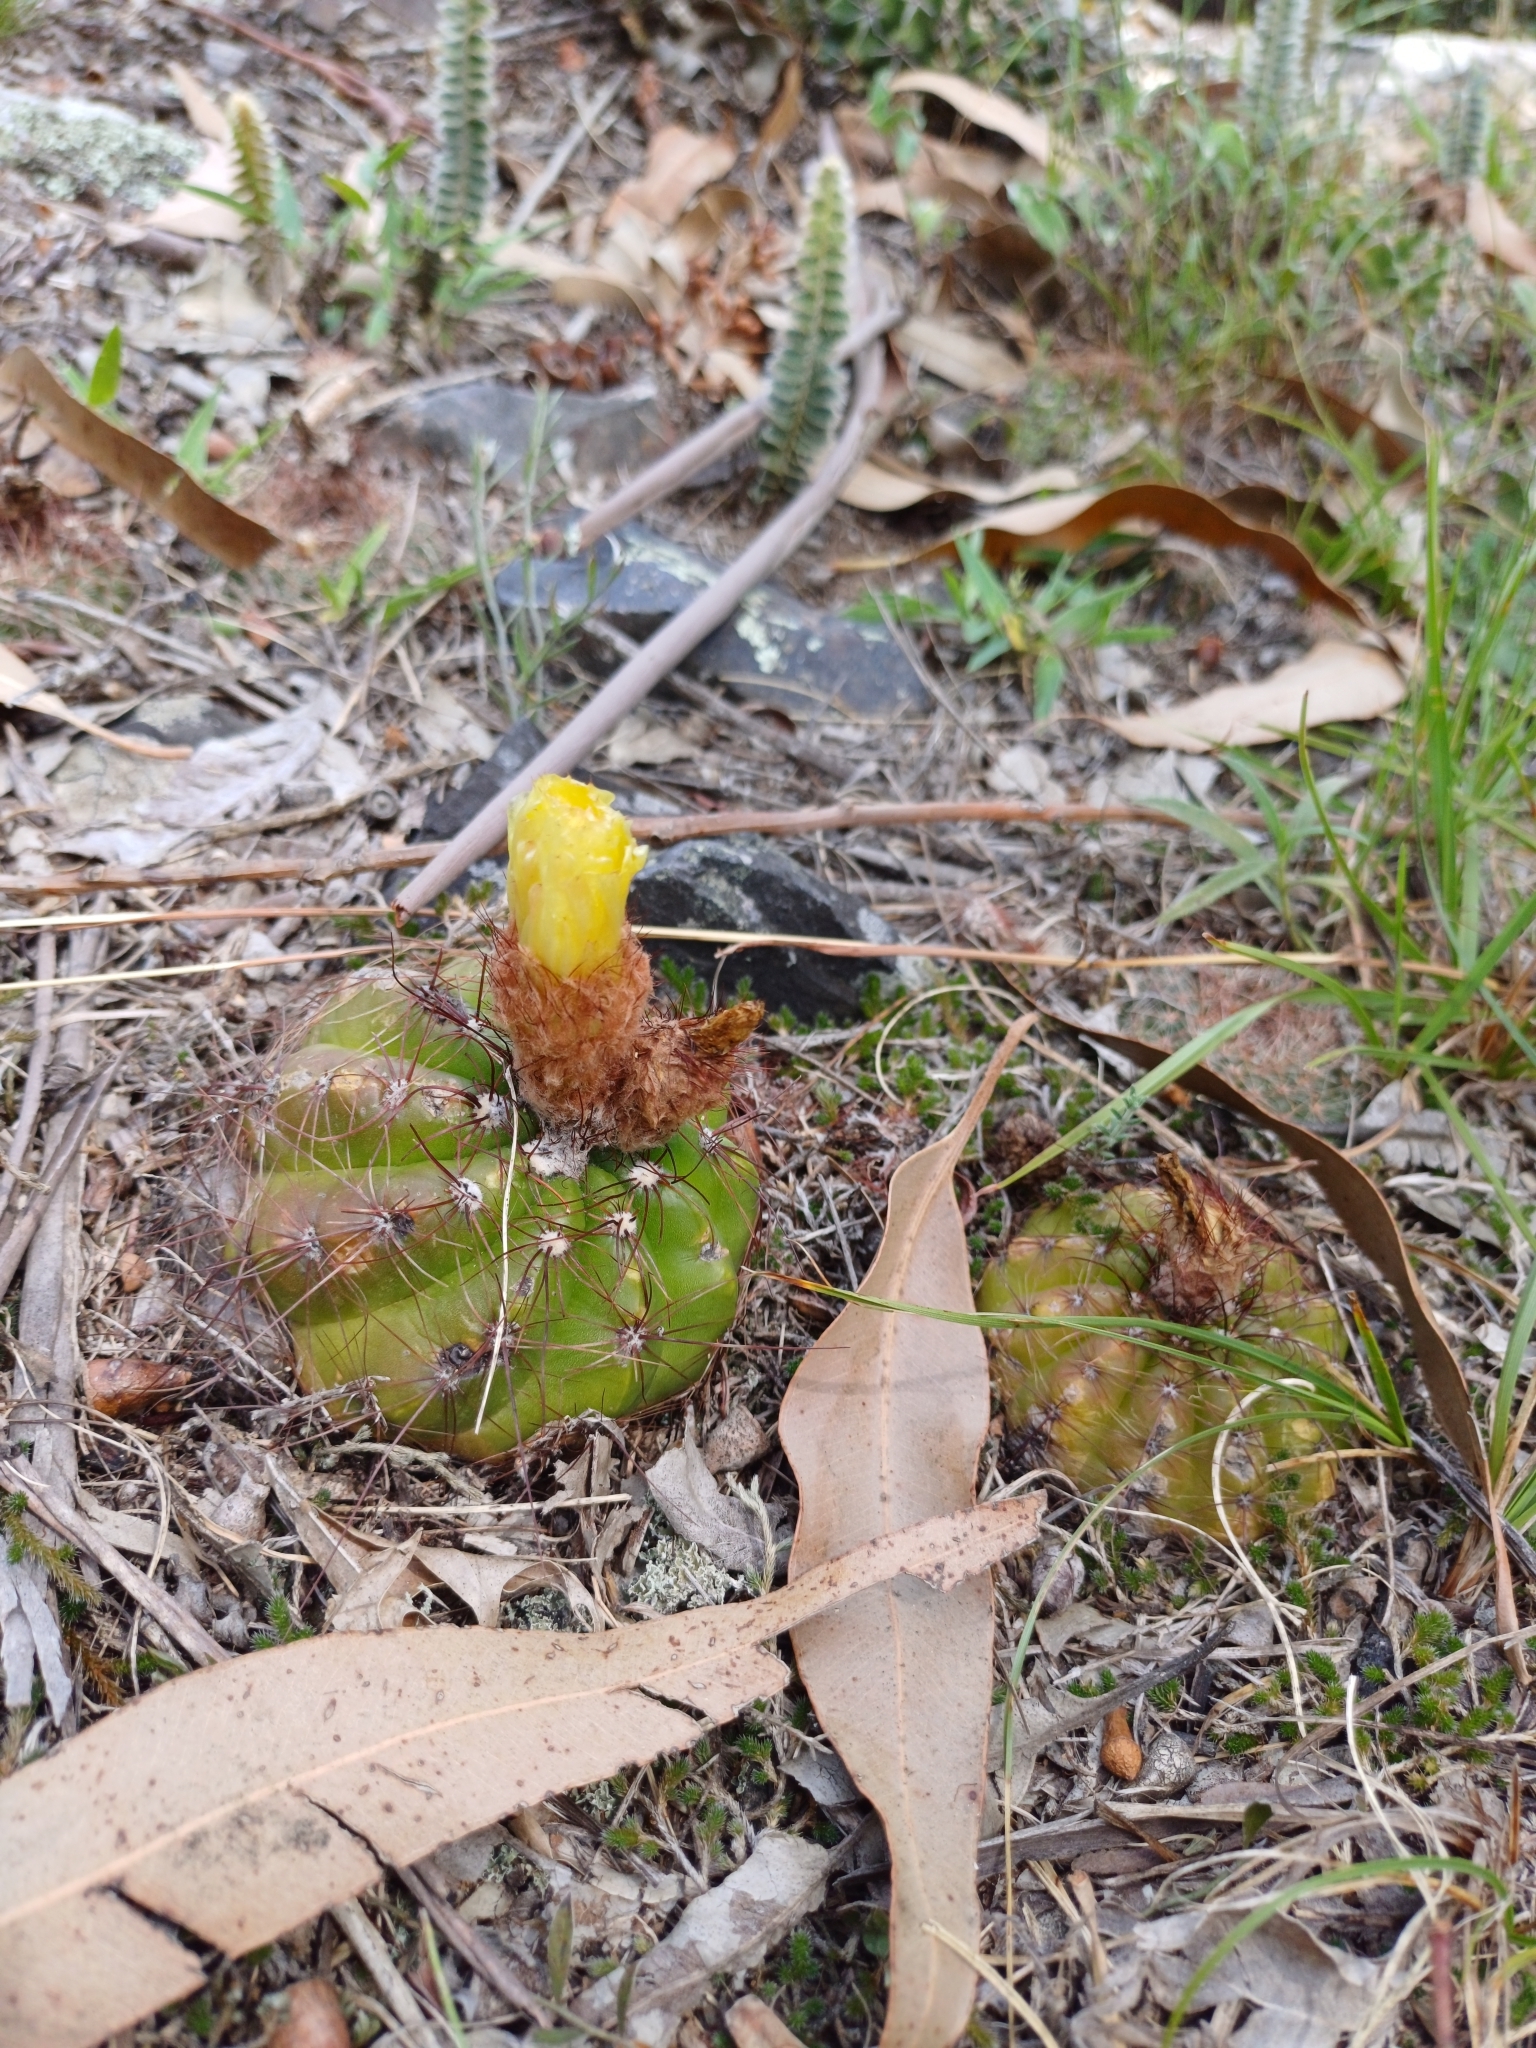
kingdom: Plantae
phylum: Tracheophyta
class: Magnoliopsida
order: Caryophyllales
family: Cactaceae
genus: Parodia
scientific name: Parodia ottonis
